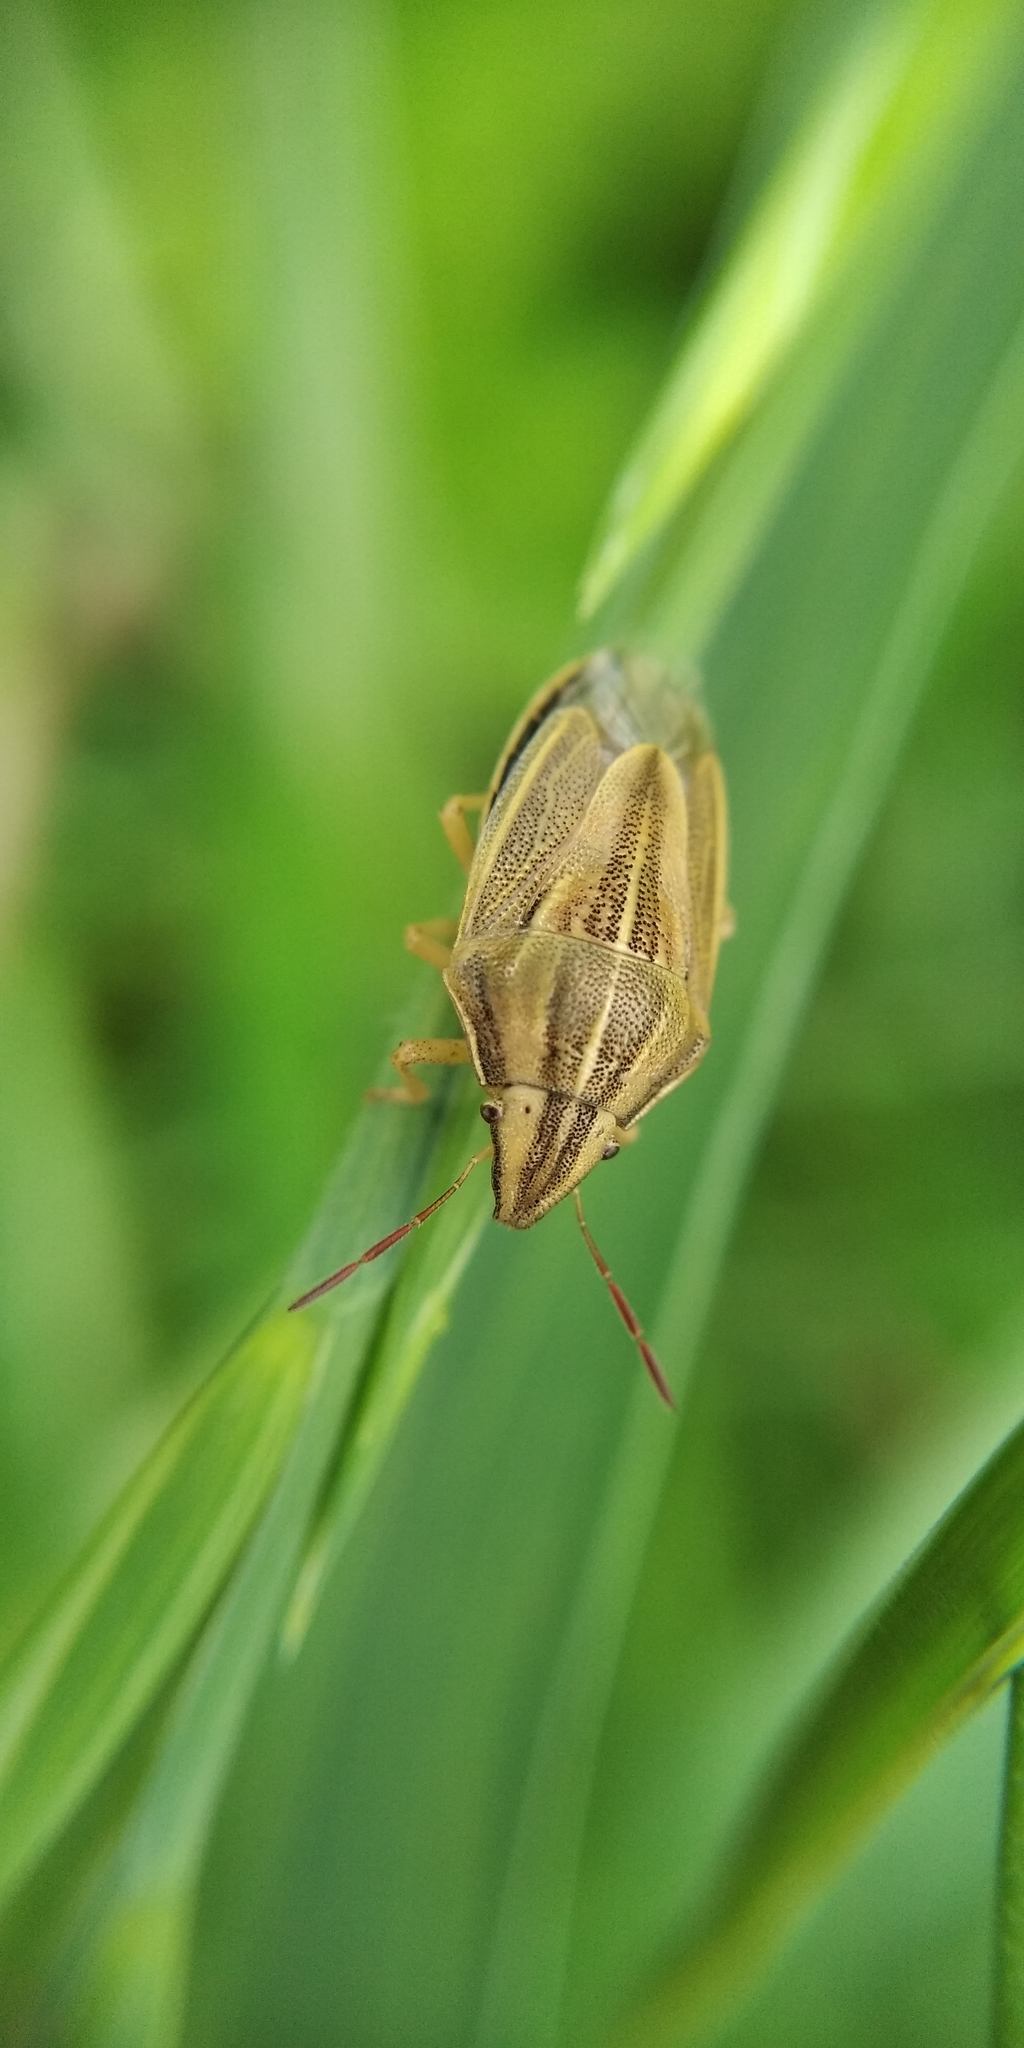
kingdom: Animalia
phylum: Arthropoda
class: Insecta
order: Hemiptera
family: Pentatomidae
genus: Aelia
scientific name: Aelia acuminata
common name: Bishop's mitre
